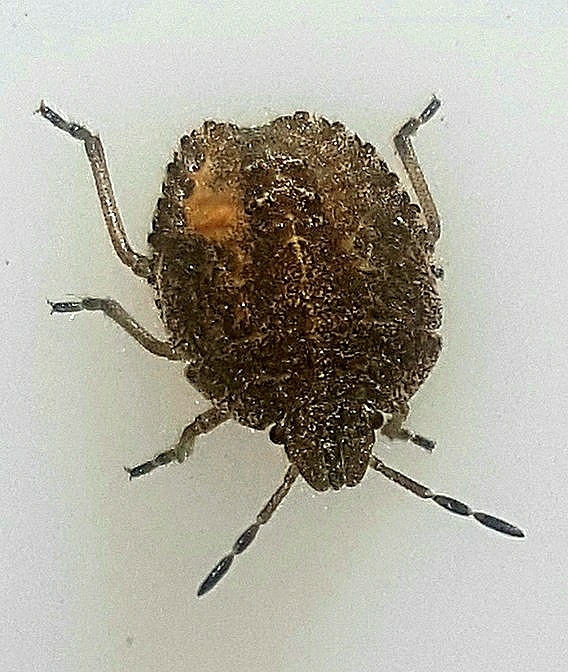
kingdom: Animalia
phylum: Arthropoda
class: Insecta
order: Hemiptera
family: Pentatomidae
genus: Dolycoris
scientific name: Dolycoris baccarum
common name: Sloe bug
